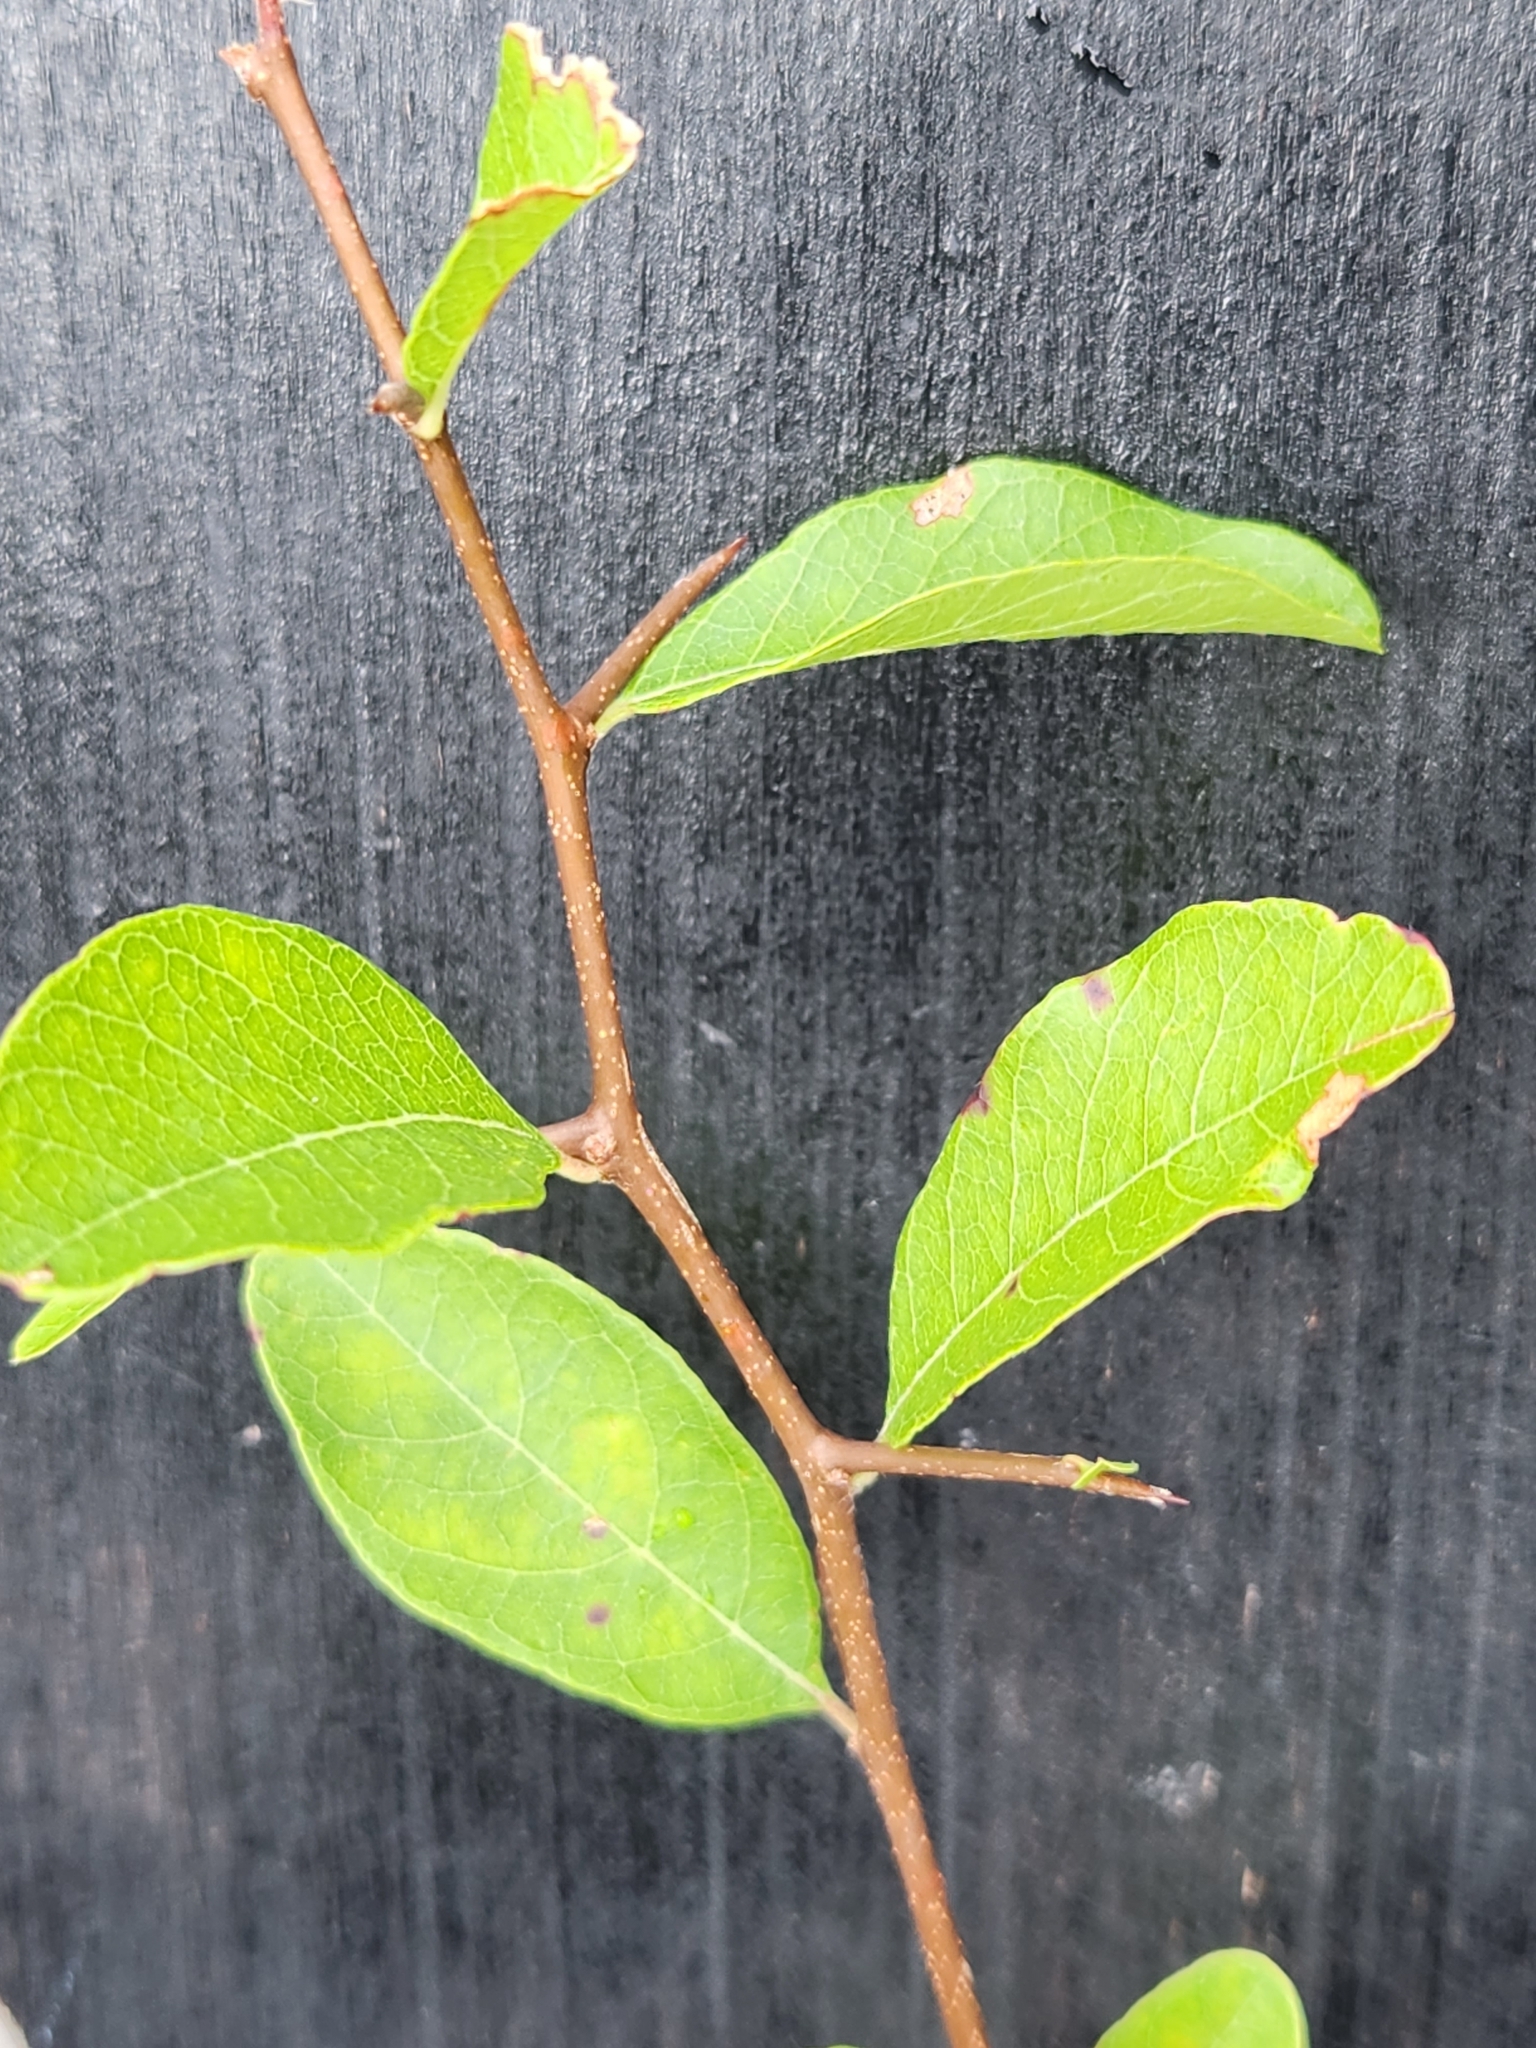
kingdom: Plantae
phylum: Tracheophyta
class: Magnoliopsida
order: Ericales
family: Sapotaceae
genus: Sideroxylon
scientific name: Sideroxylon lanuginosum
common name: Chittamwood
